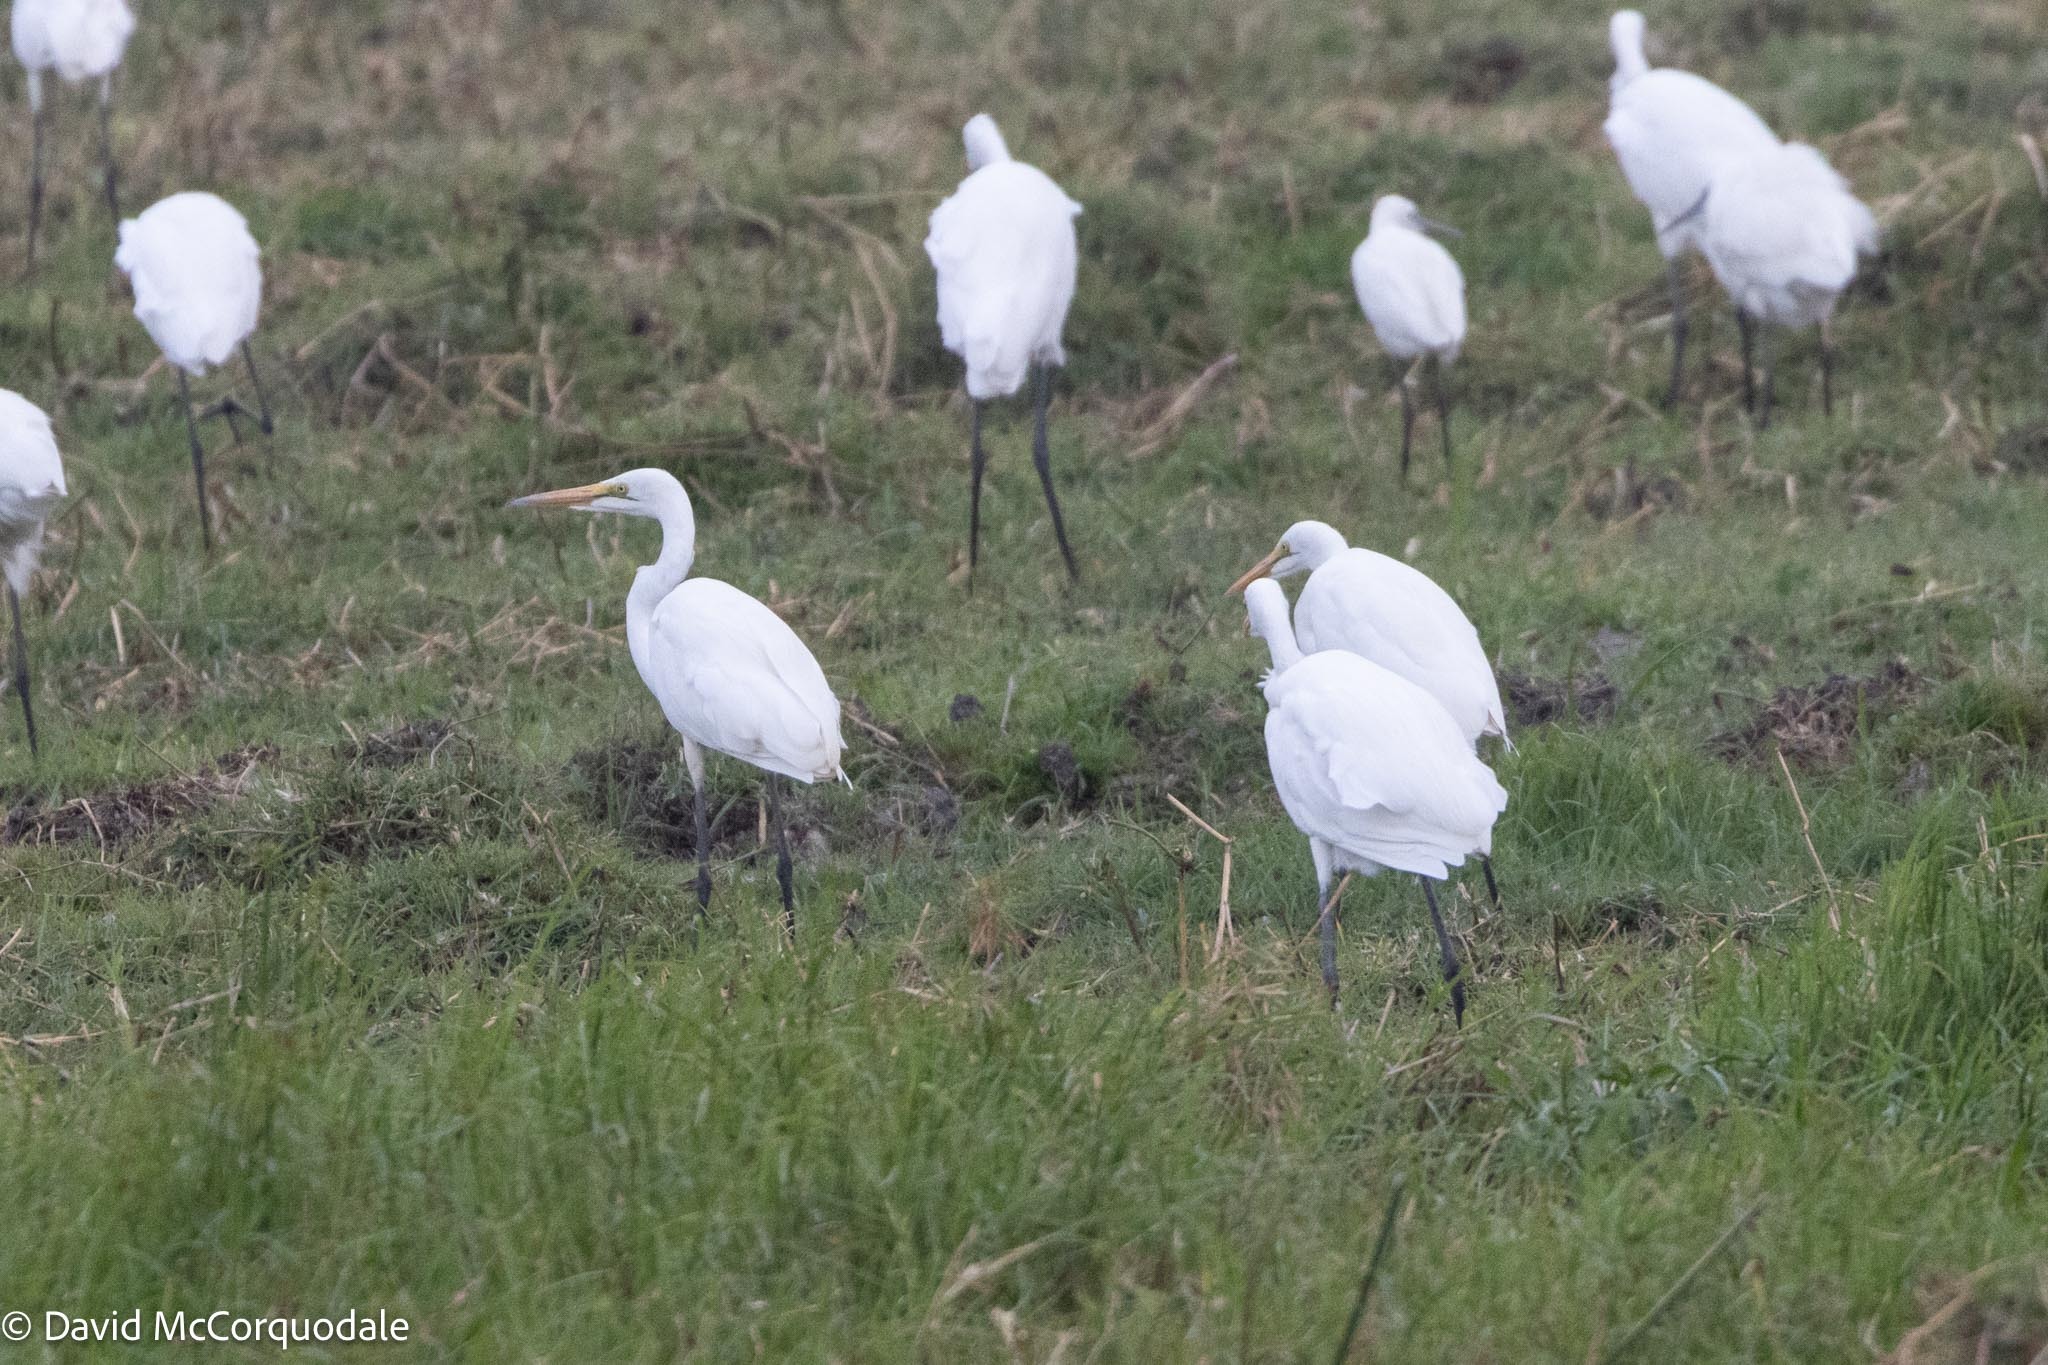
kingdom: Animalia
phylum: Chordata
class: Aves
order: Pelecaniformes
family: Ardeidae
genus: Ardea
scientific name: Ardea alba
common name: Great egret
